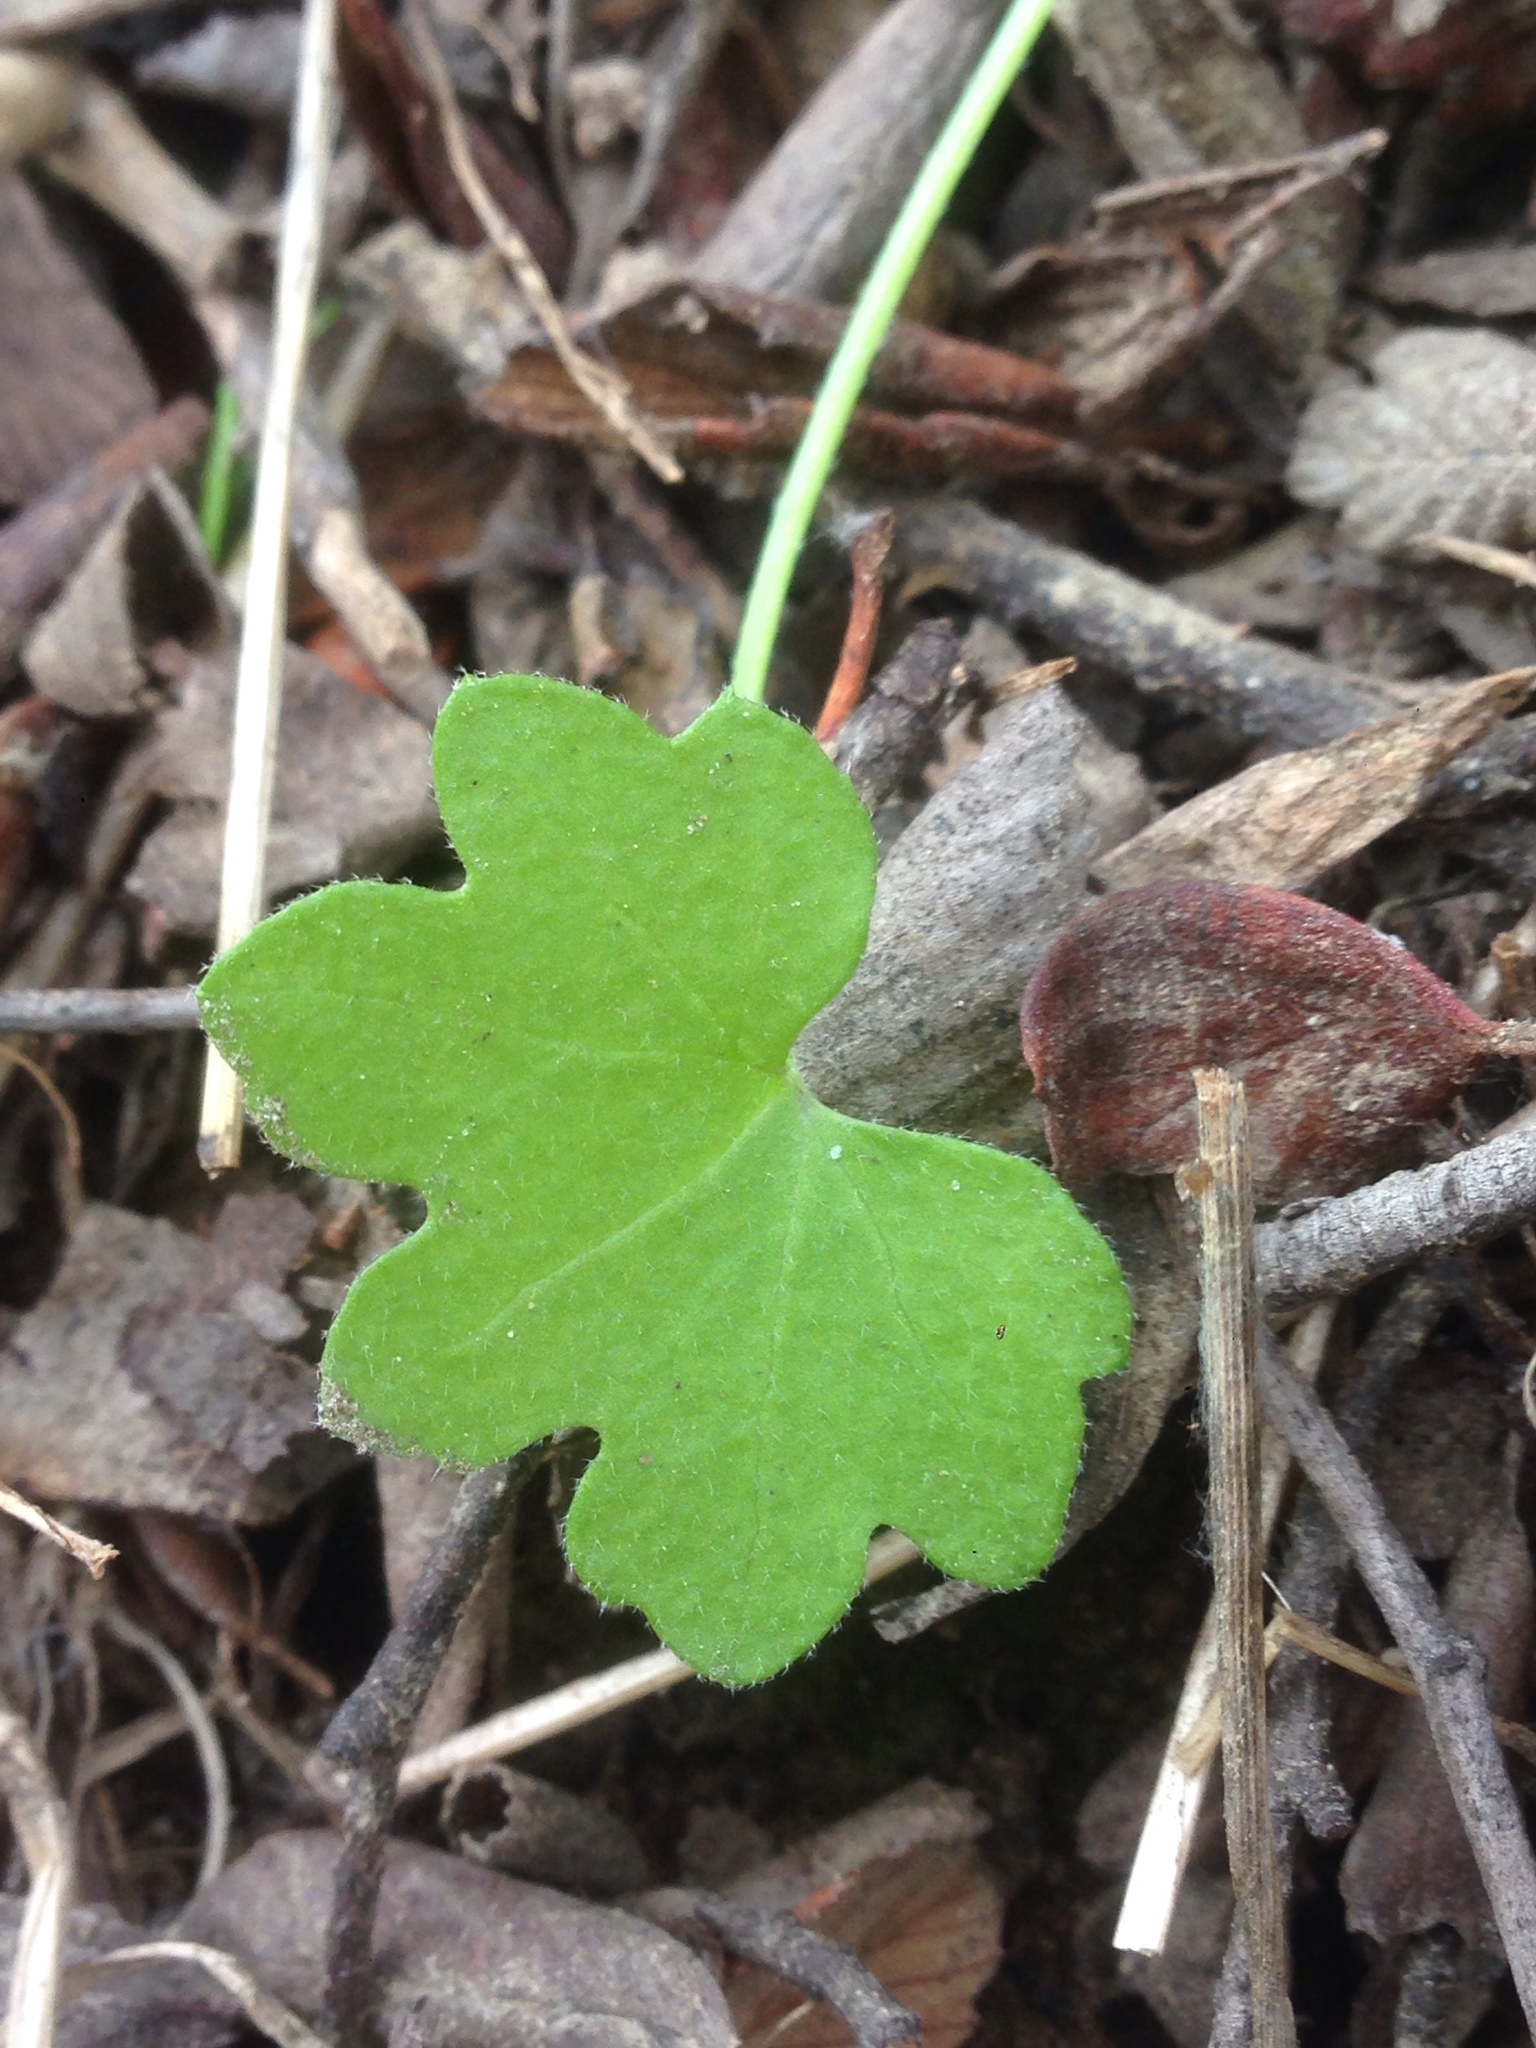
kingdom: Plantae
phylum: Tracheophyta
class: Magnoliopsida
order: Apiales
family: Apiaceae
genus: Bowlesia
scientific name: Bowlesia incana
